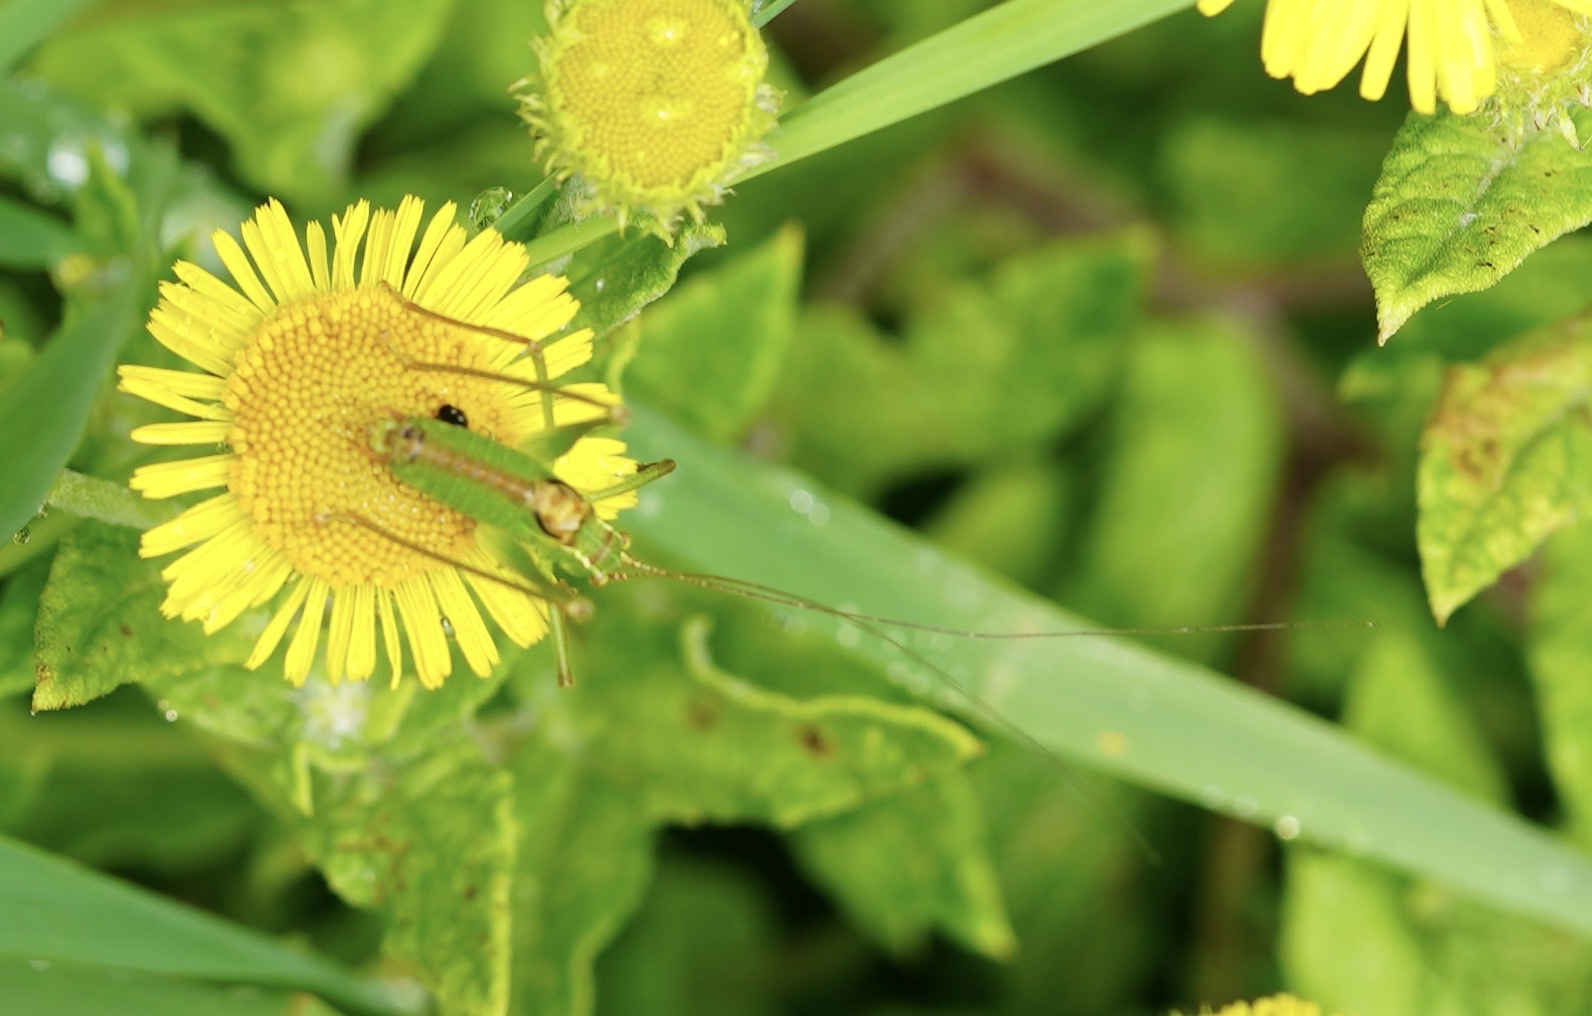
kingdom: Animalia
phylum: Arthropoda
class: Insecta
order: Orthoptera
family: Tettigoniidae
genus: Leptophyes
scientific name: Leptophyes punctatissima
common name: Speckled bush-cricket
